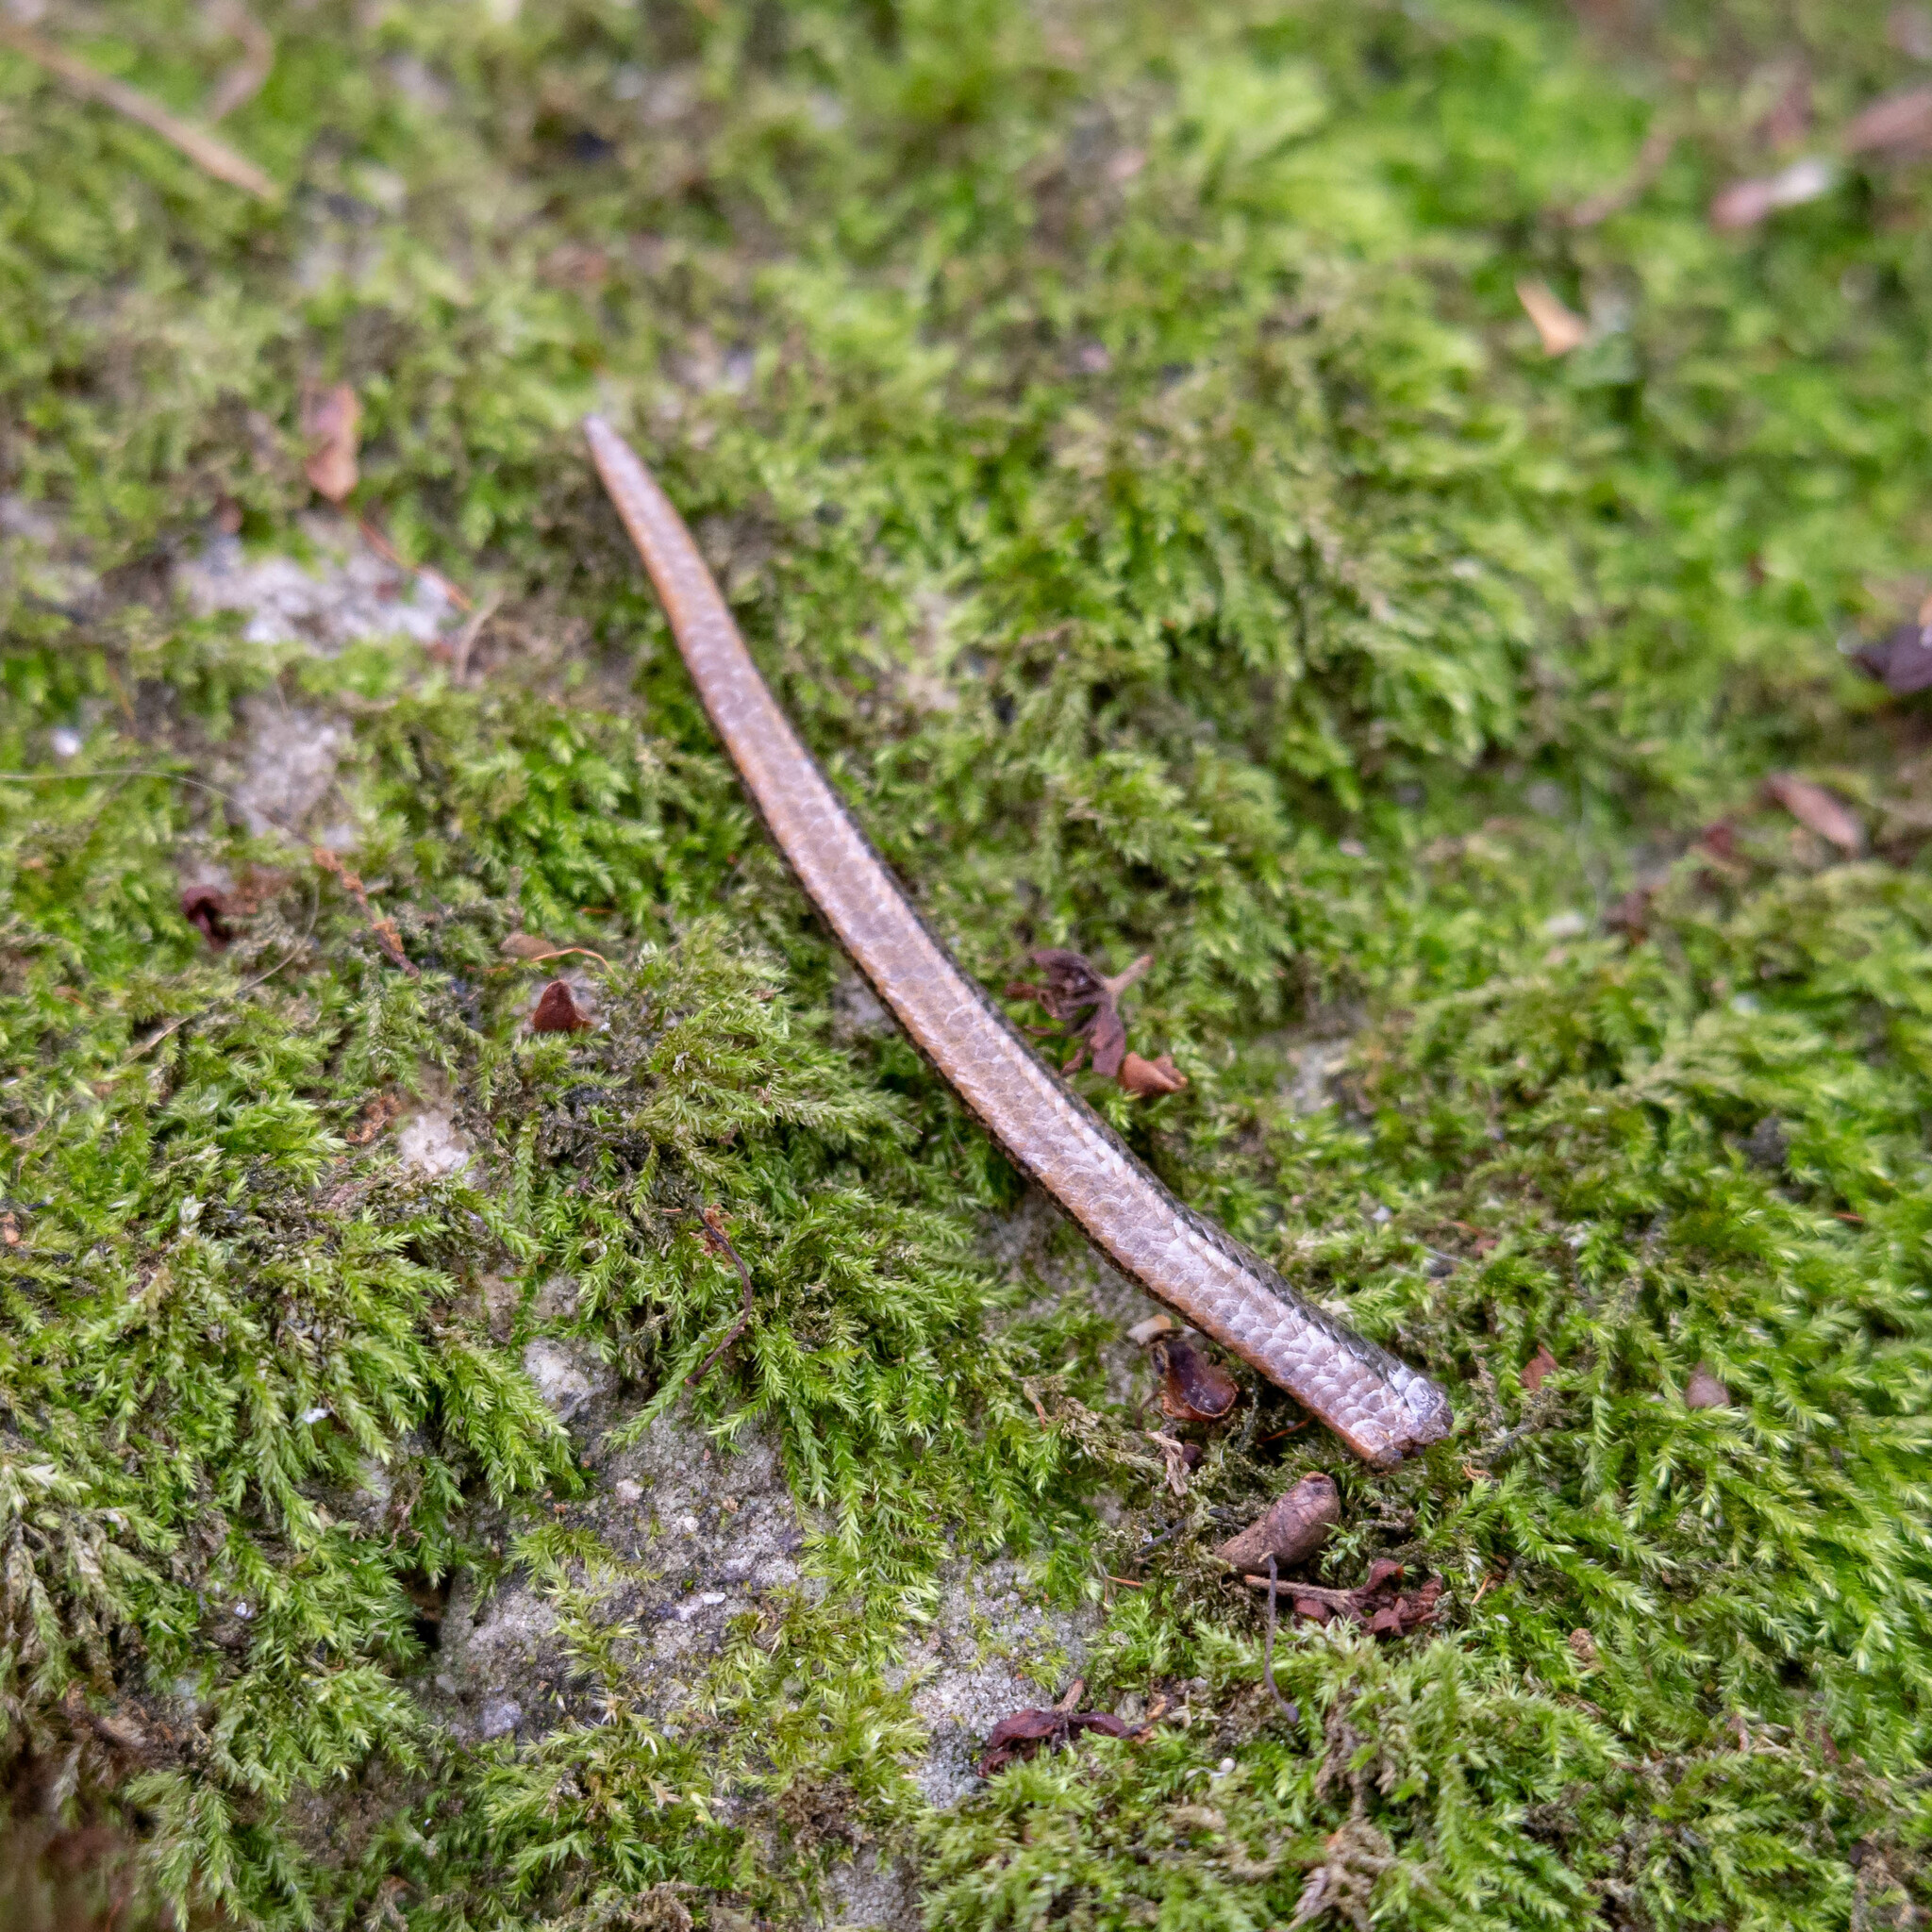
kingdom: Animalia
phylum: Chordata
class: Squamata
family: Anguidae
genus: Anguis
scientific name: Anguis fragilis
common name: Slow worm
